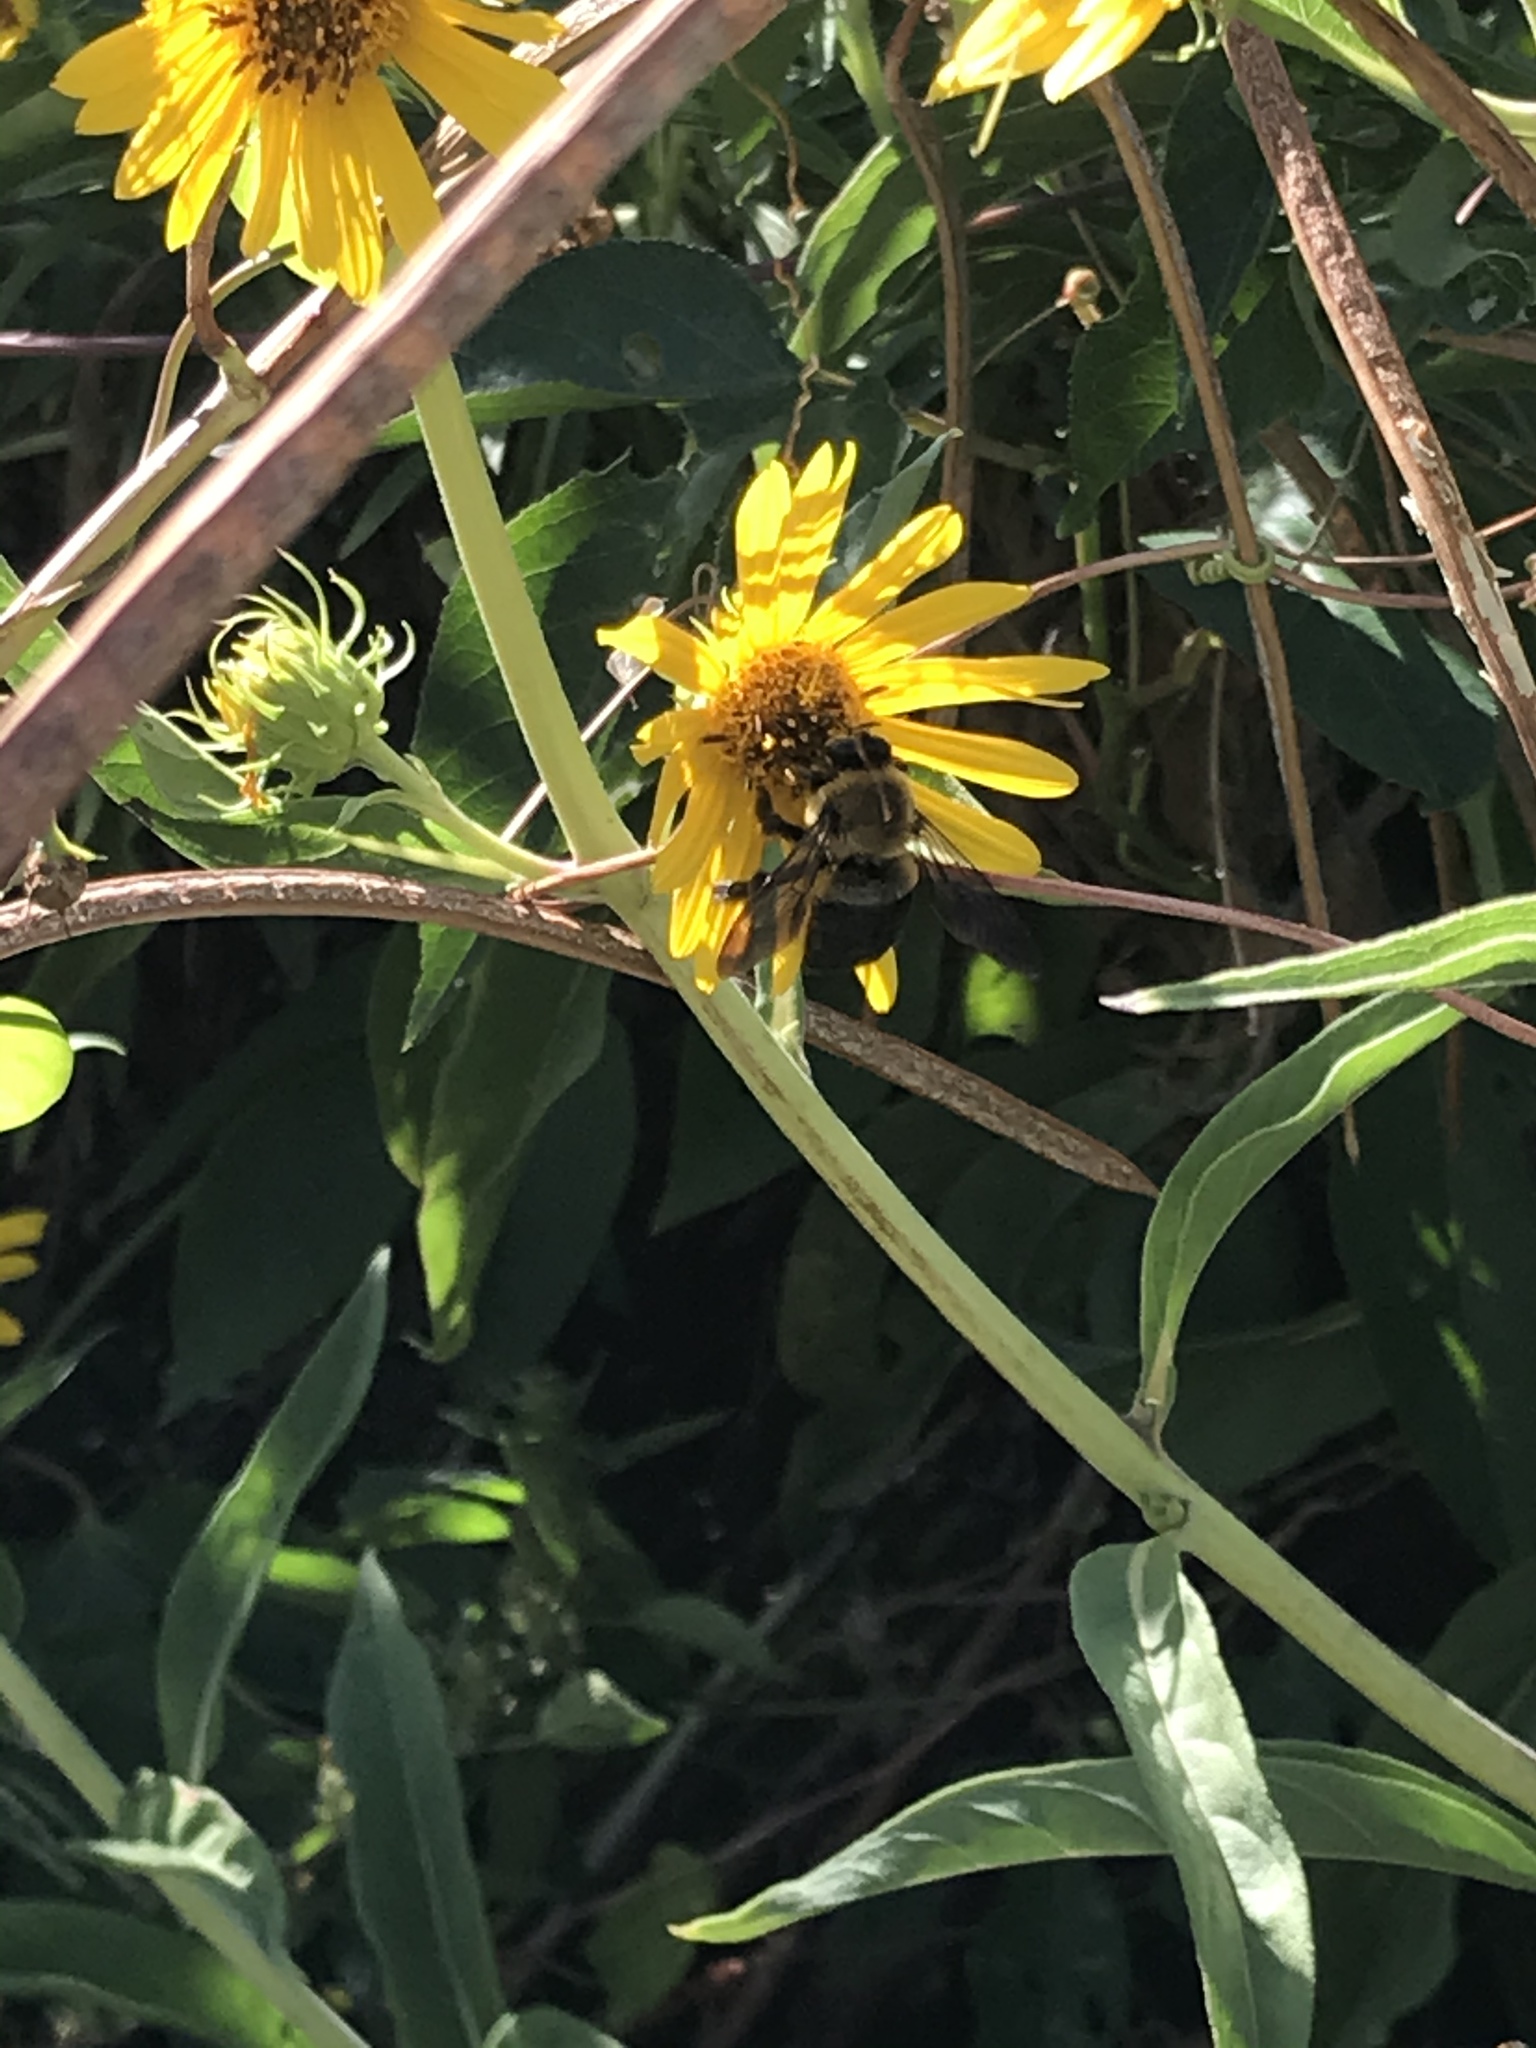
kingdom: Animalia
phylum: Arthropoda
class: Insecta
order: Hymenoptera
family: Apidae
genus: Xylocopa
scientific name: Xylocopa virginica
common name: Carpenter bee
